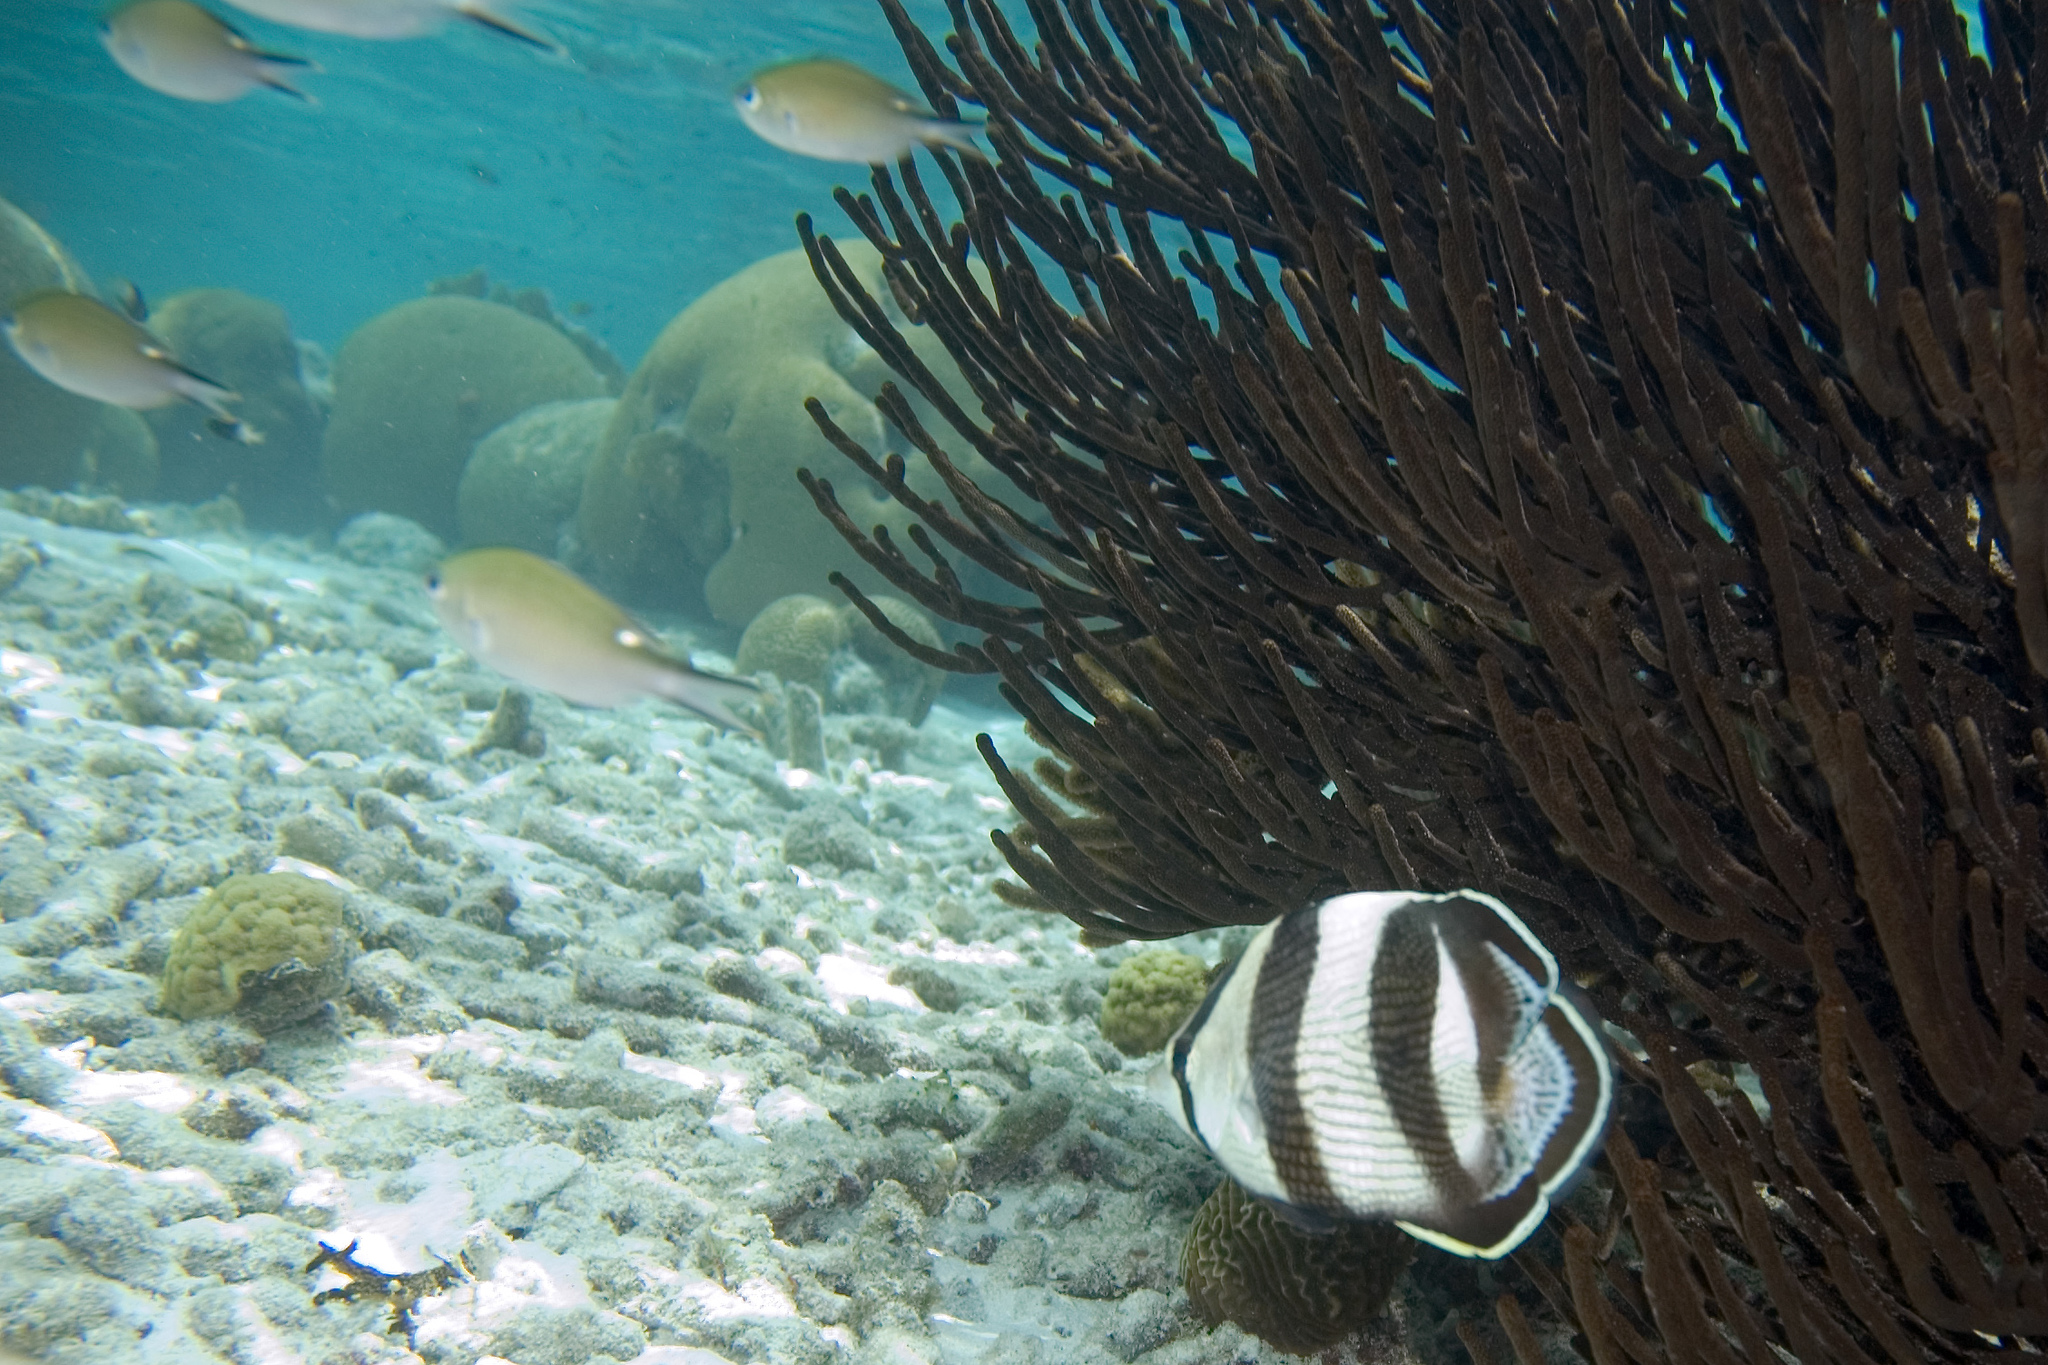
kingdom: Animalia
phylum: Chordata
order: Perciformes
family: Chaetodontidae
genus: Chaetodon
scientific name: Chaetodon striatus
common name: Banded butterflyfish
